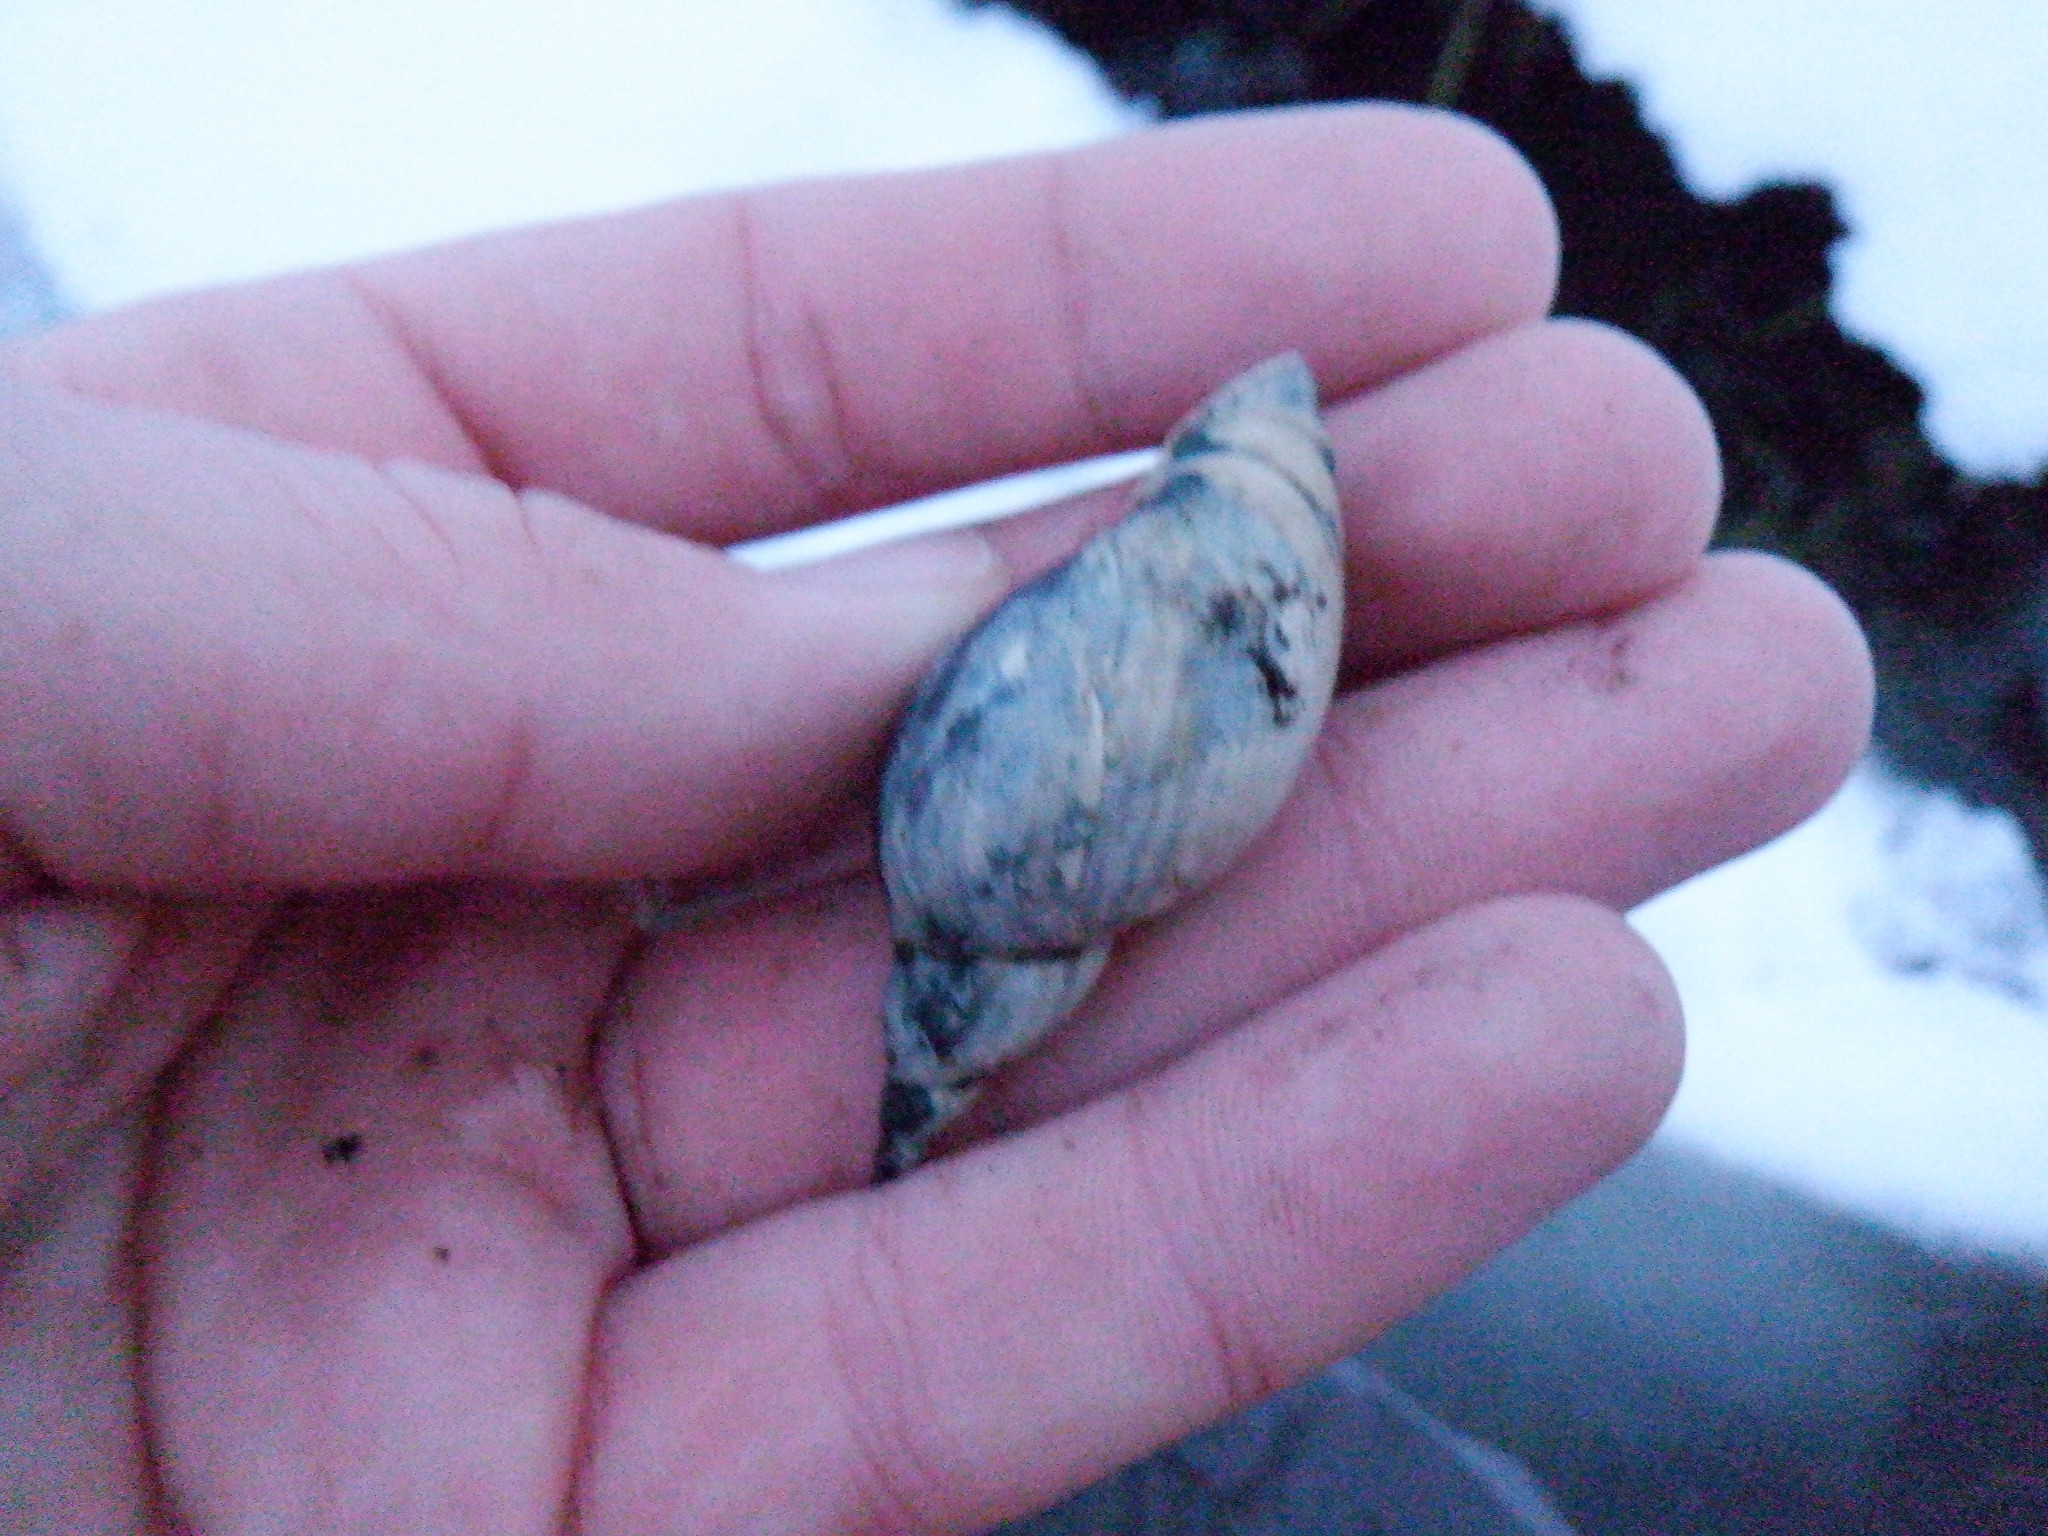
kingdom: Animalia
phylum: Mollusca
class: Gastropoda
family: Lymnaeidae
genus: Lymnaea
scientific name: Lymnaea stagnalis
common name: Great pond snail
